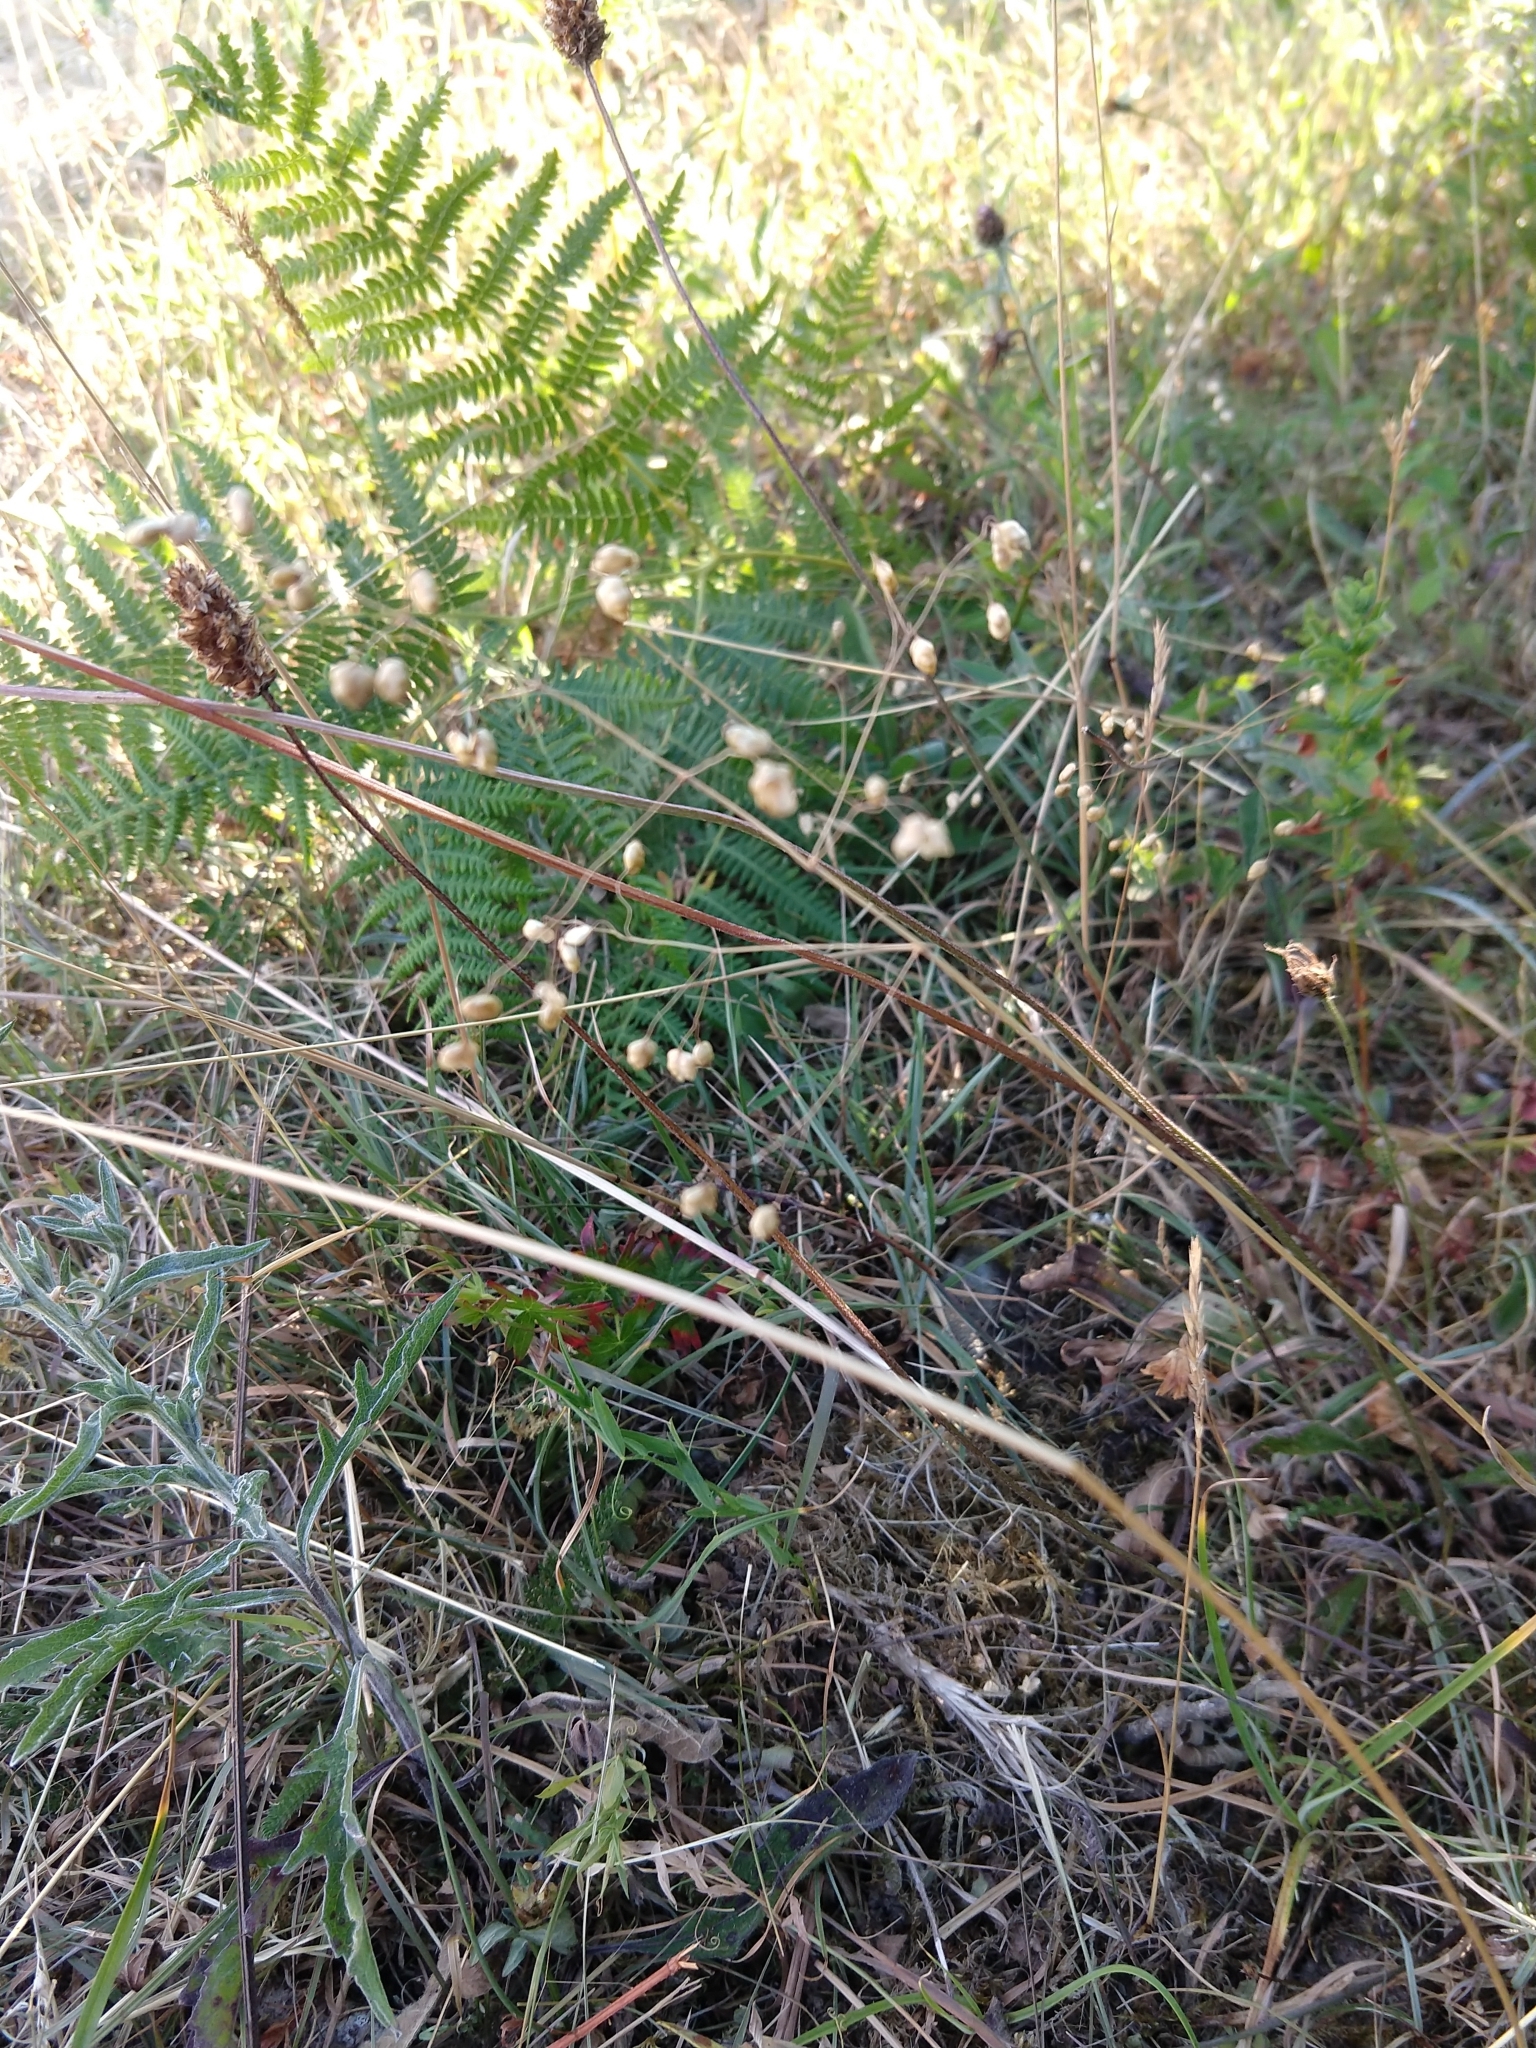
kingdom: Plantae
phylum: Tracheophyta
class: Liliopsida
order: Poales
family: Poaceae
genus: Briza
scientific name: Briza media
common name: Quaking grass
